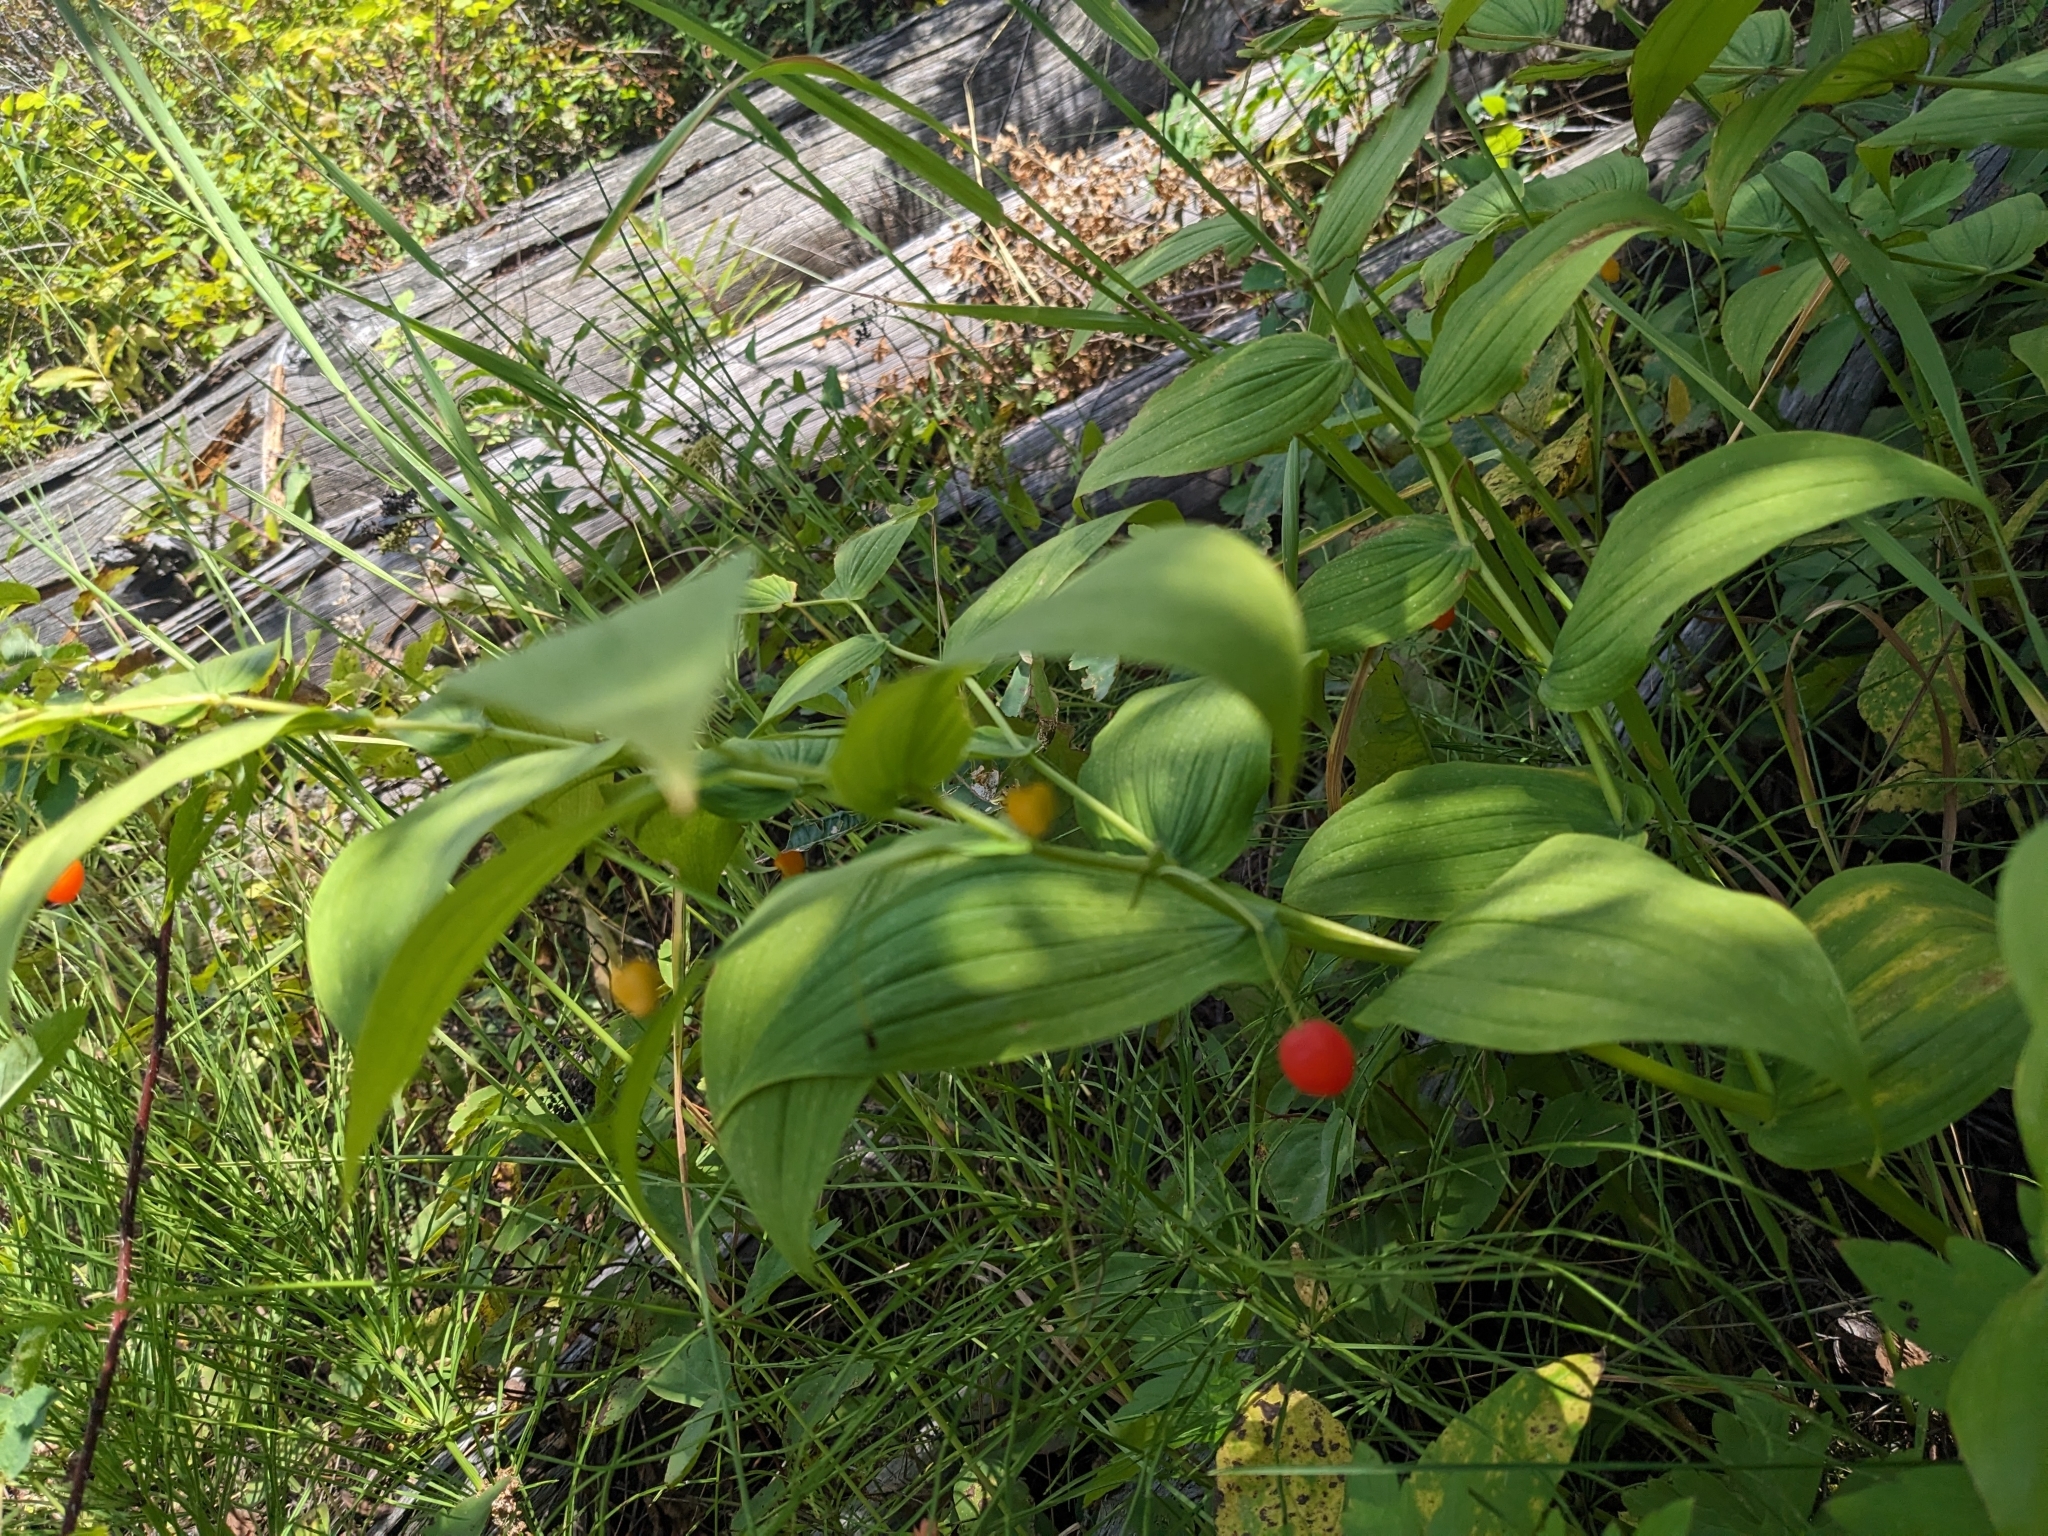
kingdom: Plantae
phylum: Tracheophyta
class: Liliopsida
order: Liliales
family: Liliaceae
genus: Streptopus
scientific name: Streptopus amplexifolius
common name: Clasp twisted stalk
